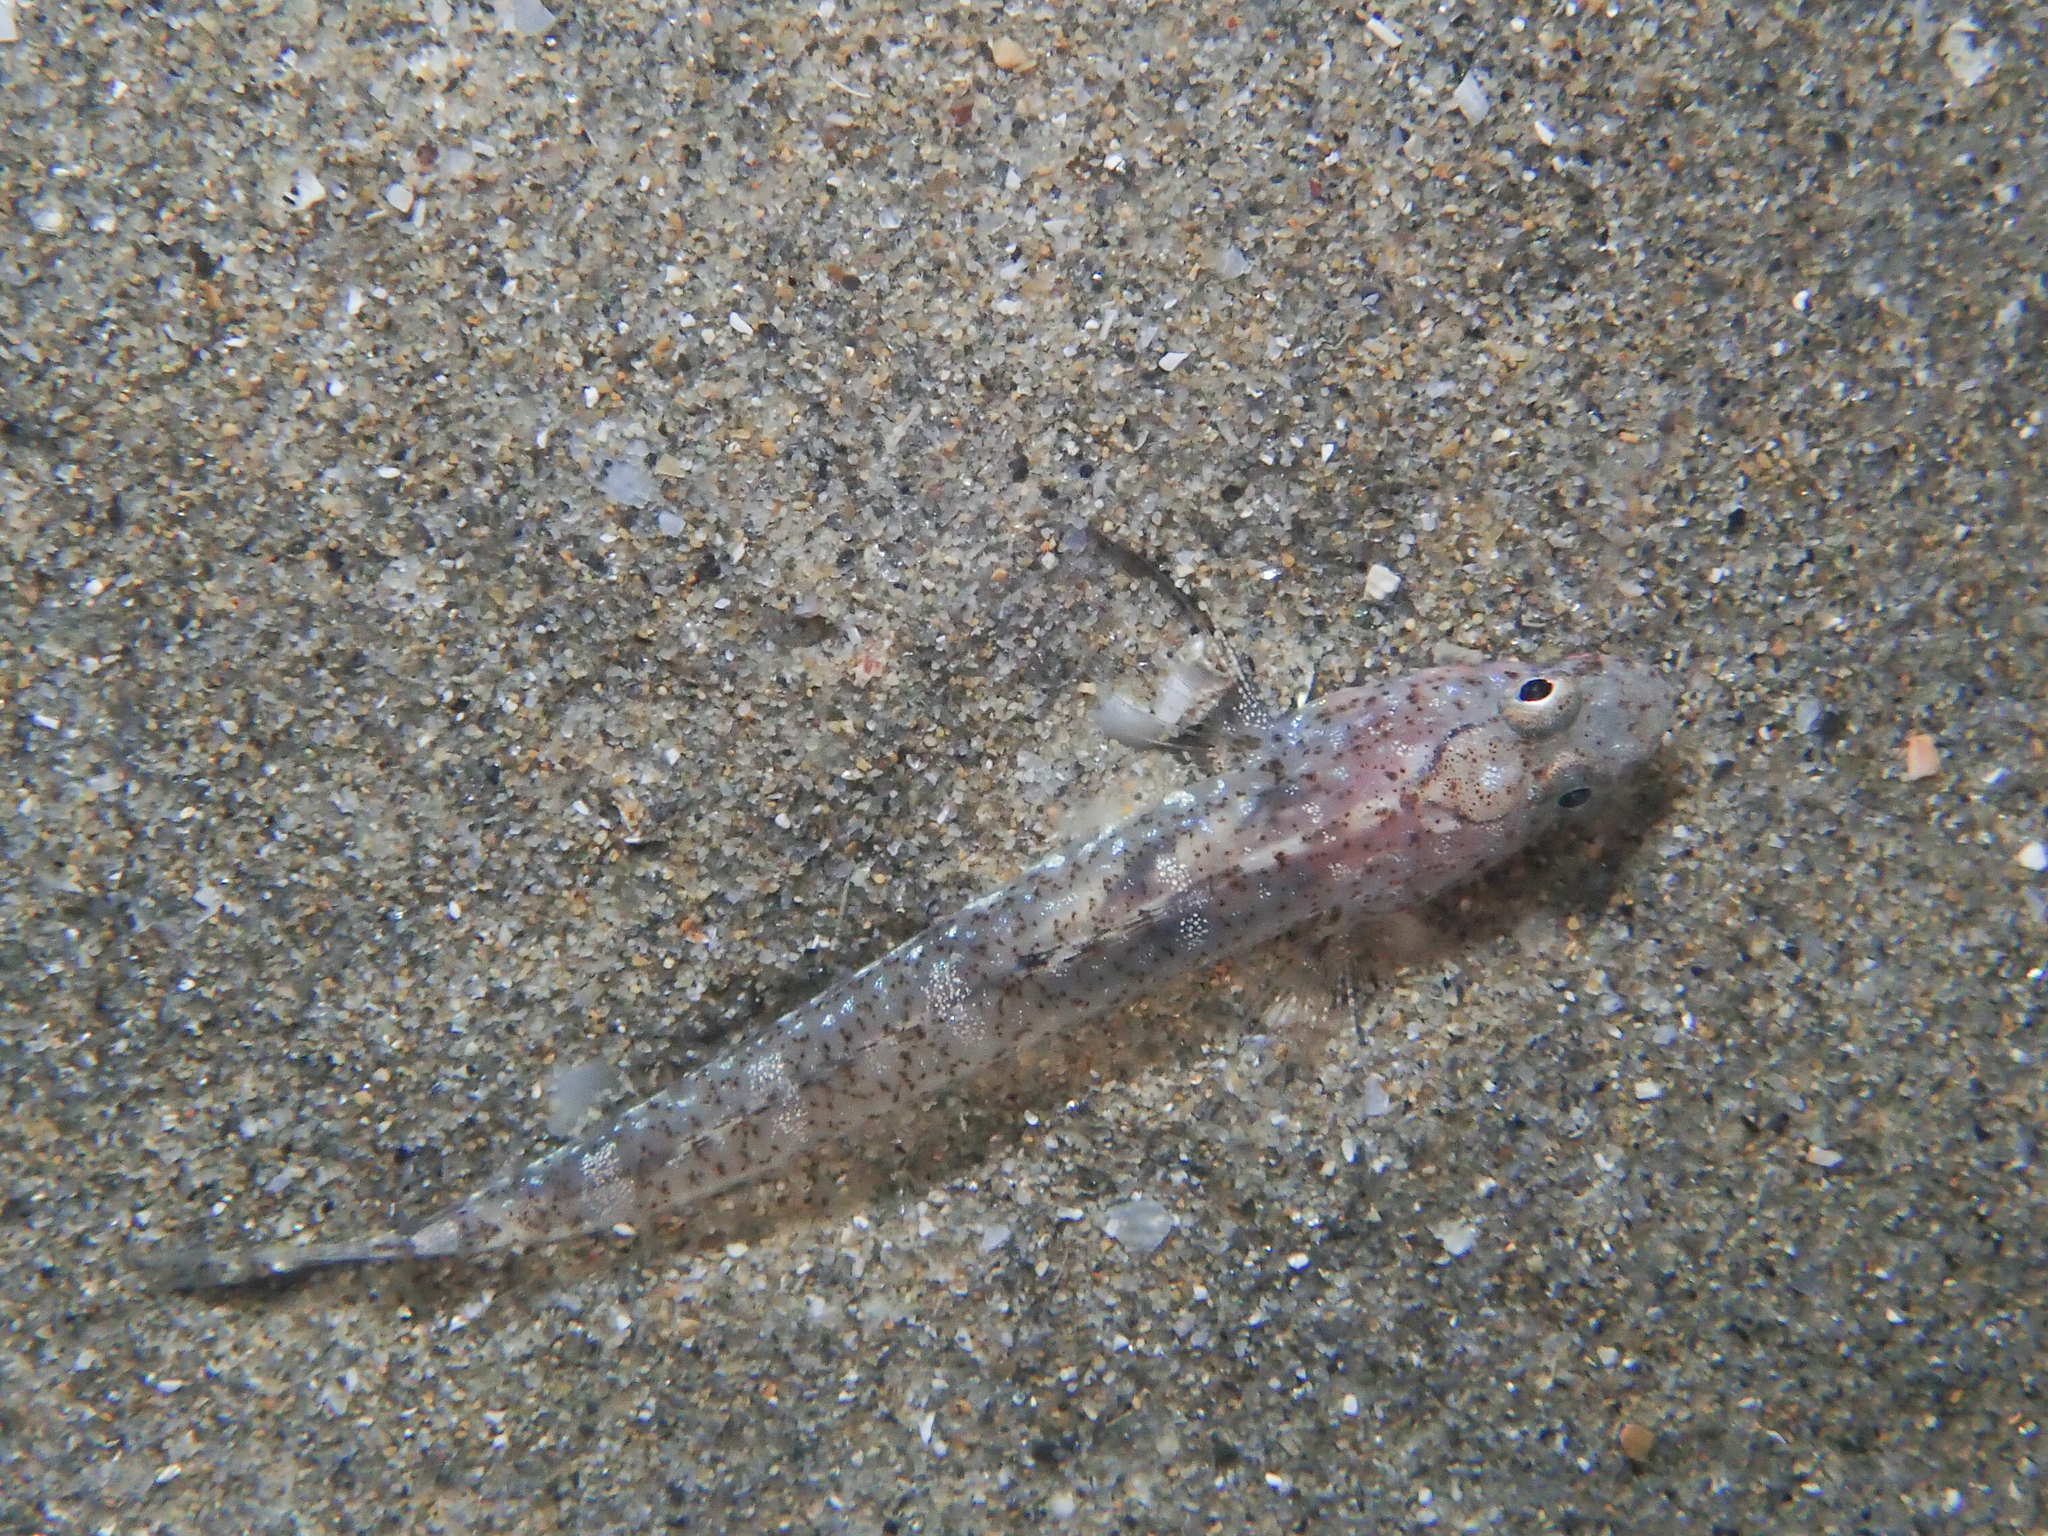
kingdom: Animalia
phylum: Chordata
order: Perciformes
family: Gobiidae
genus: Pomatoschistus
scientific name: Pomatoschistus marmoratus
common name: Marbled goby
